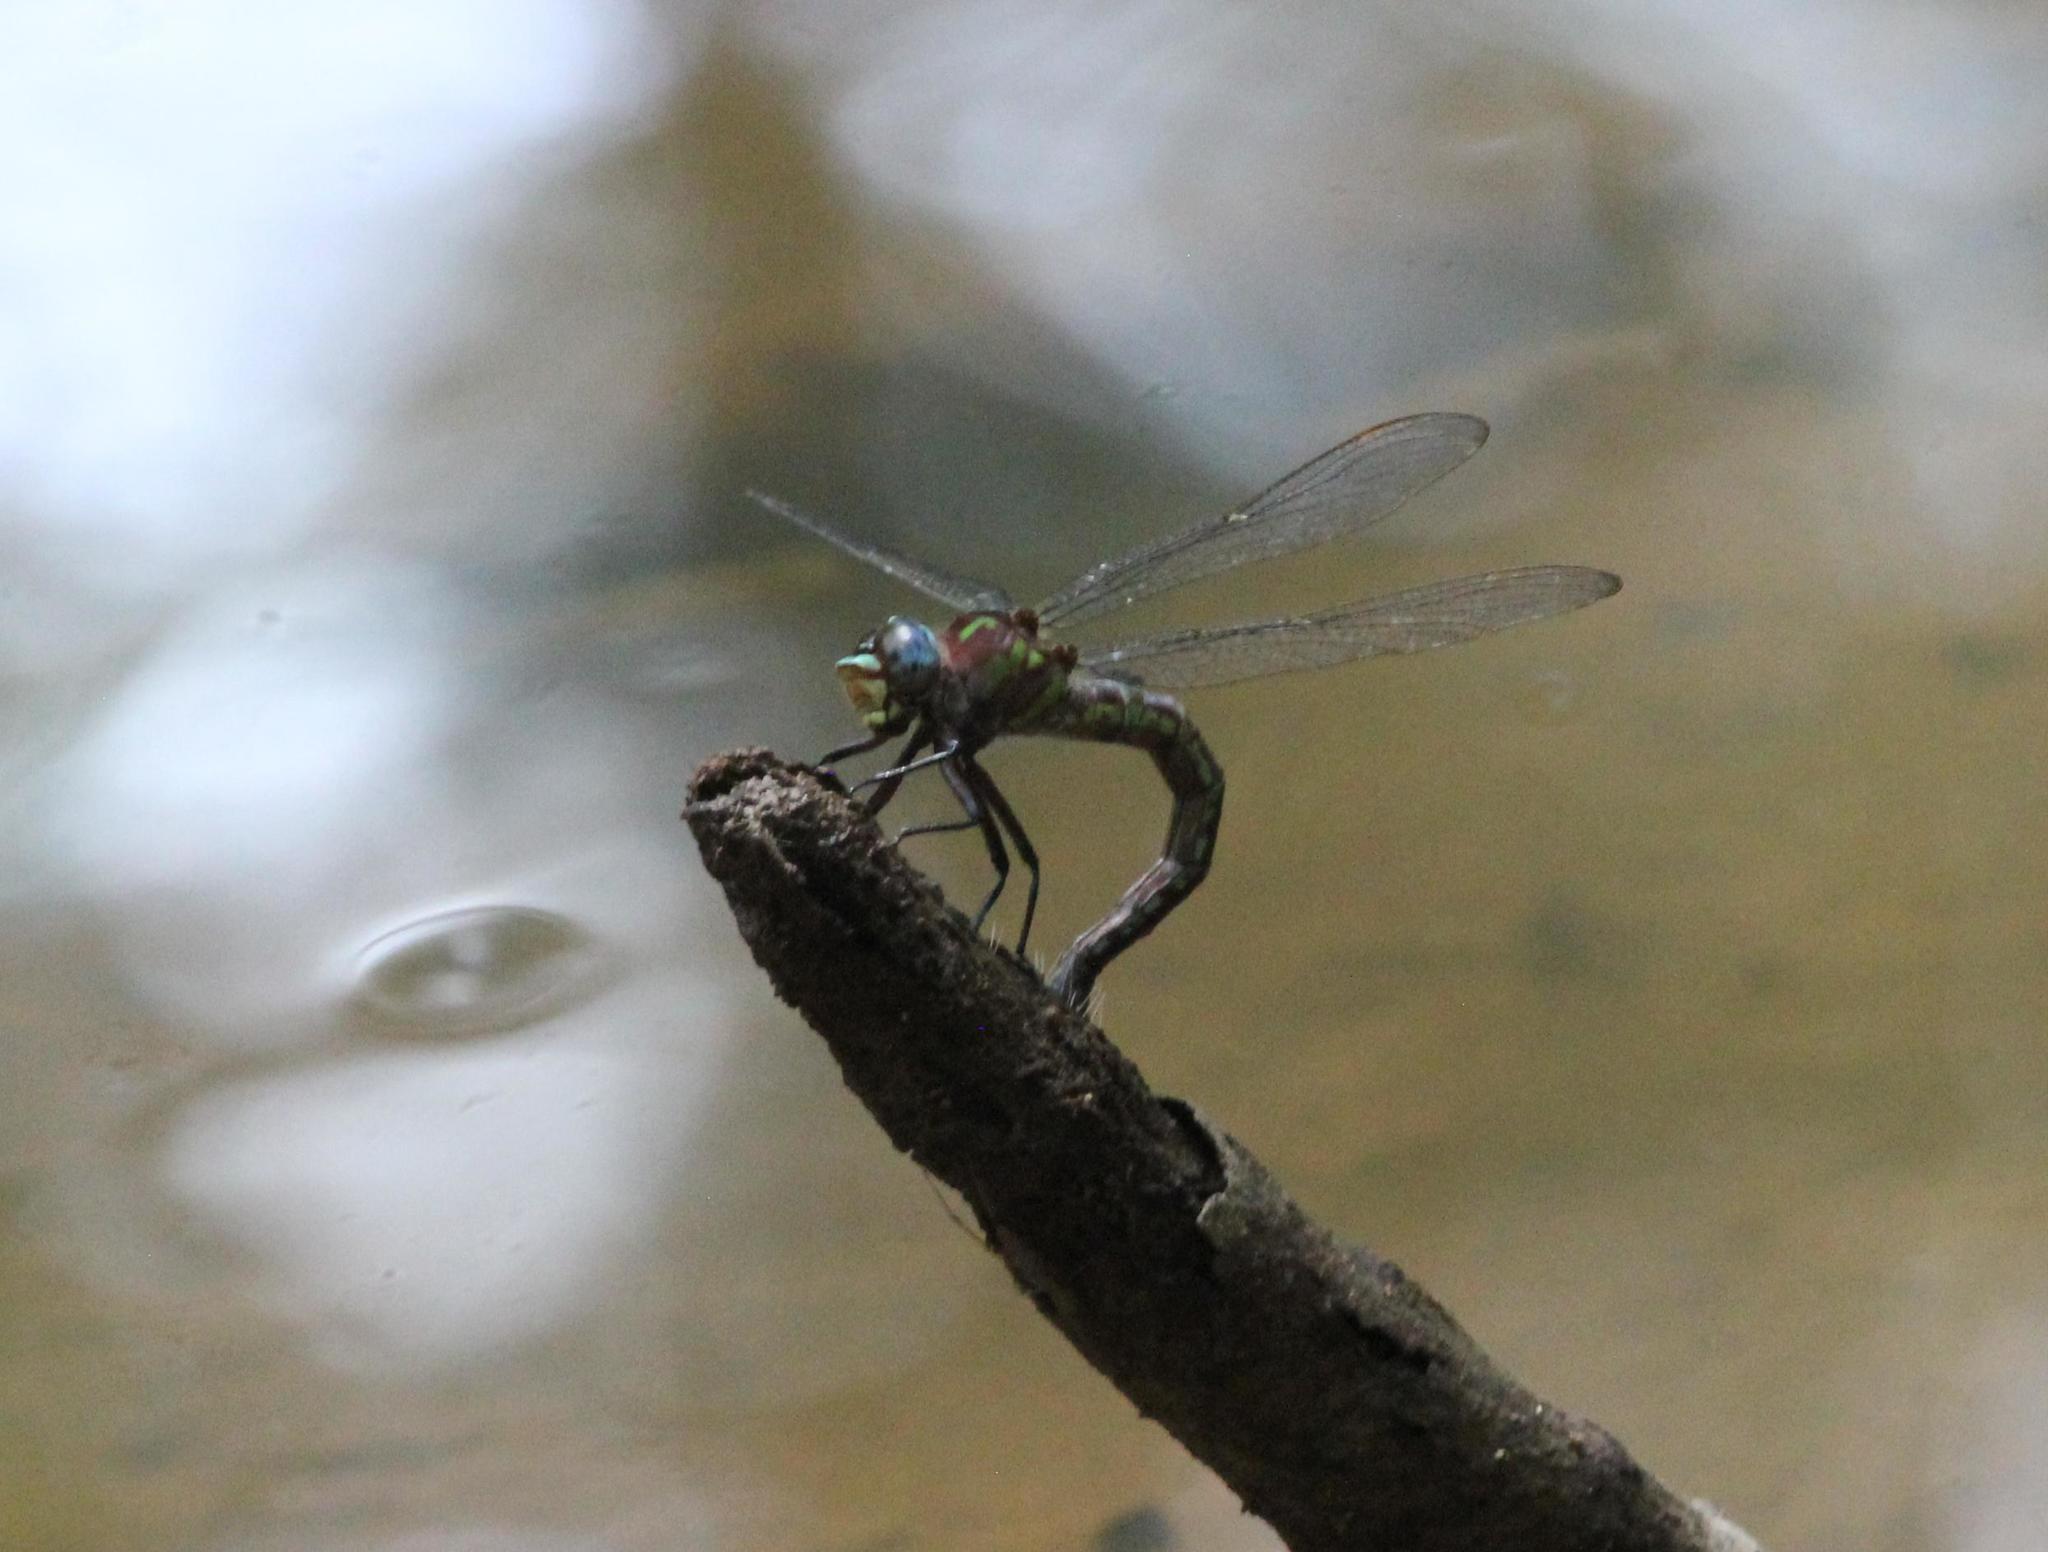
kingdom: Animalia
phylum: Arthropoda
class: Insecta
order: Odonata
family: Aeshnidae
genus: Nasiaeschna
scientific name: Nasiaeschna pentacantha
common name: Cyrano darner
